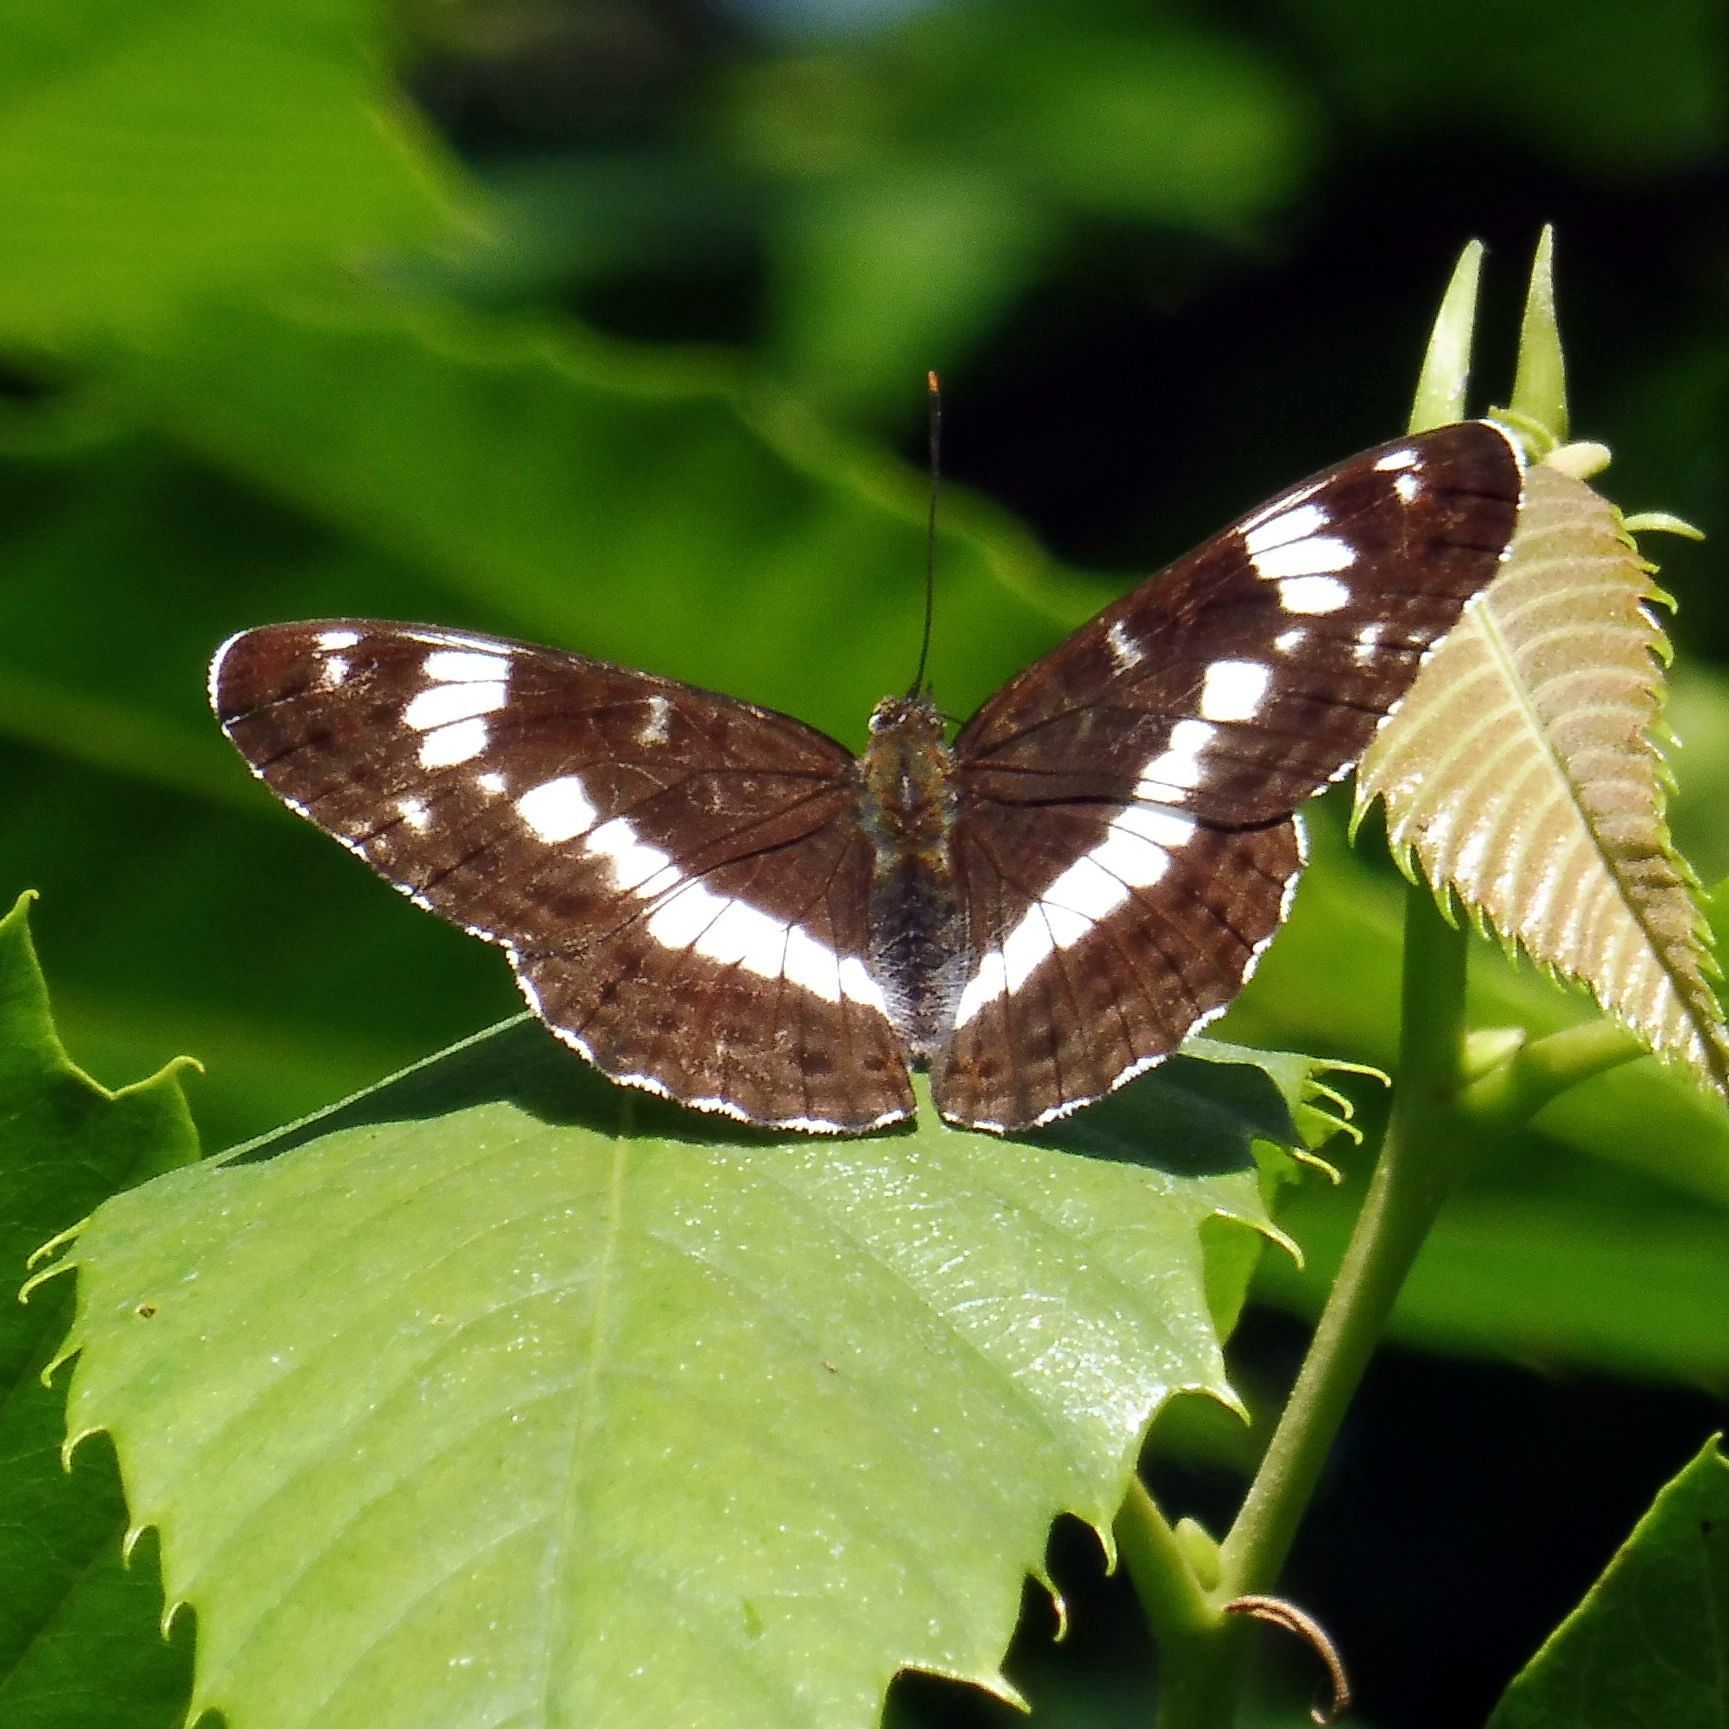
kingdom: Animalia
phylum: Arthropoda
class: Insecta
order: Lepidoptera
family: Nymphalidae
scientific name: Nymphalidae
